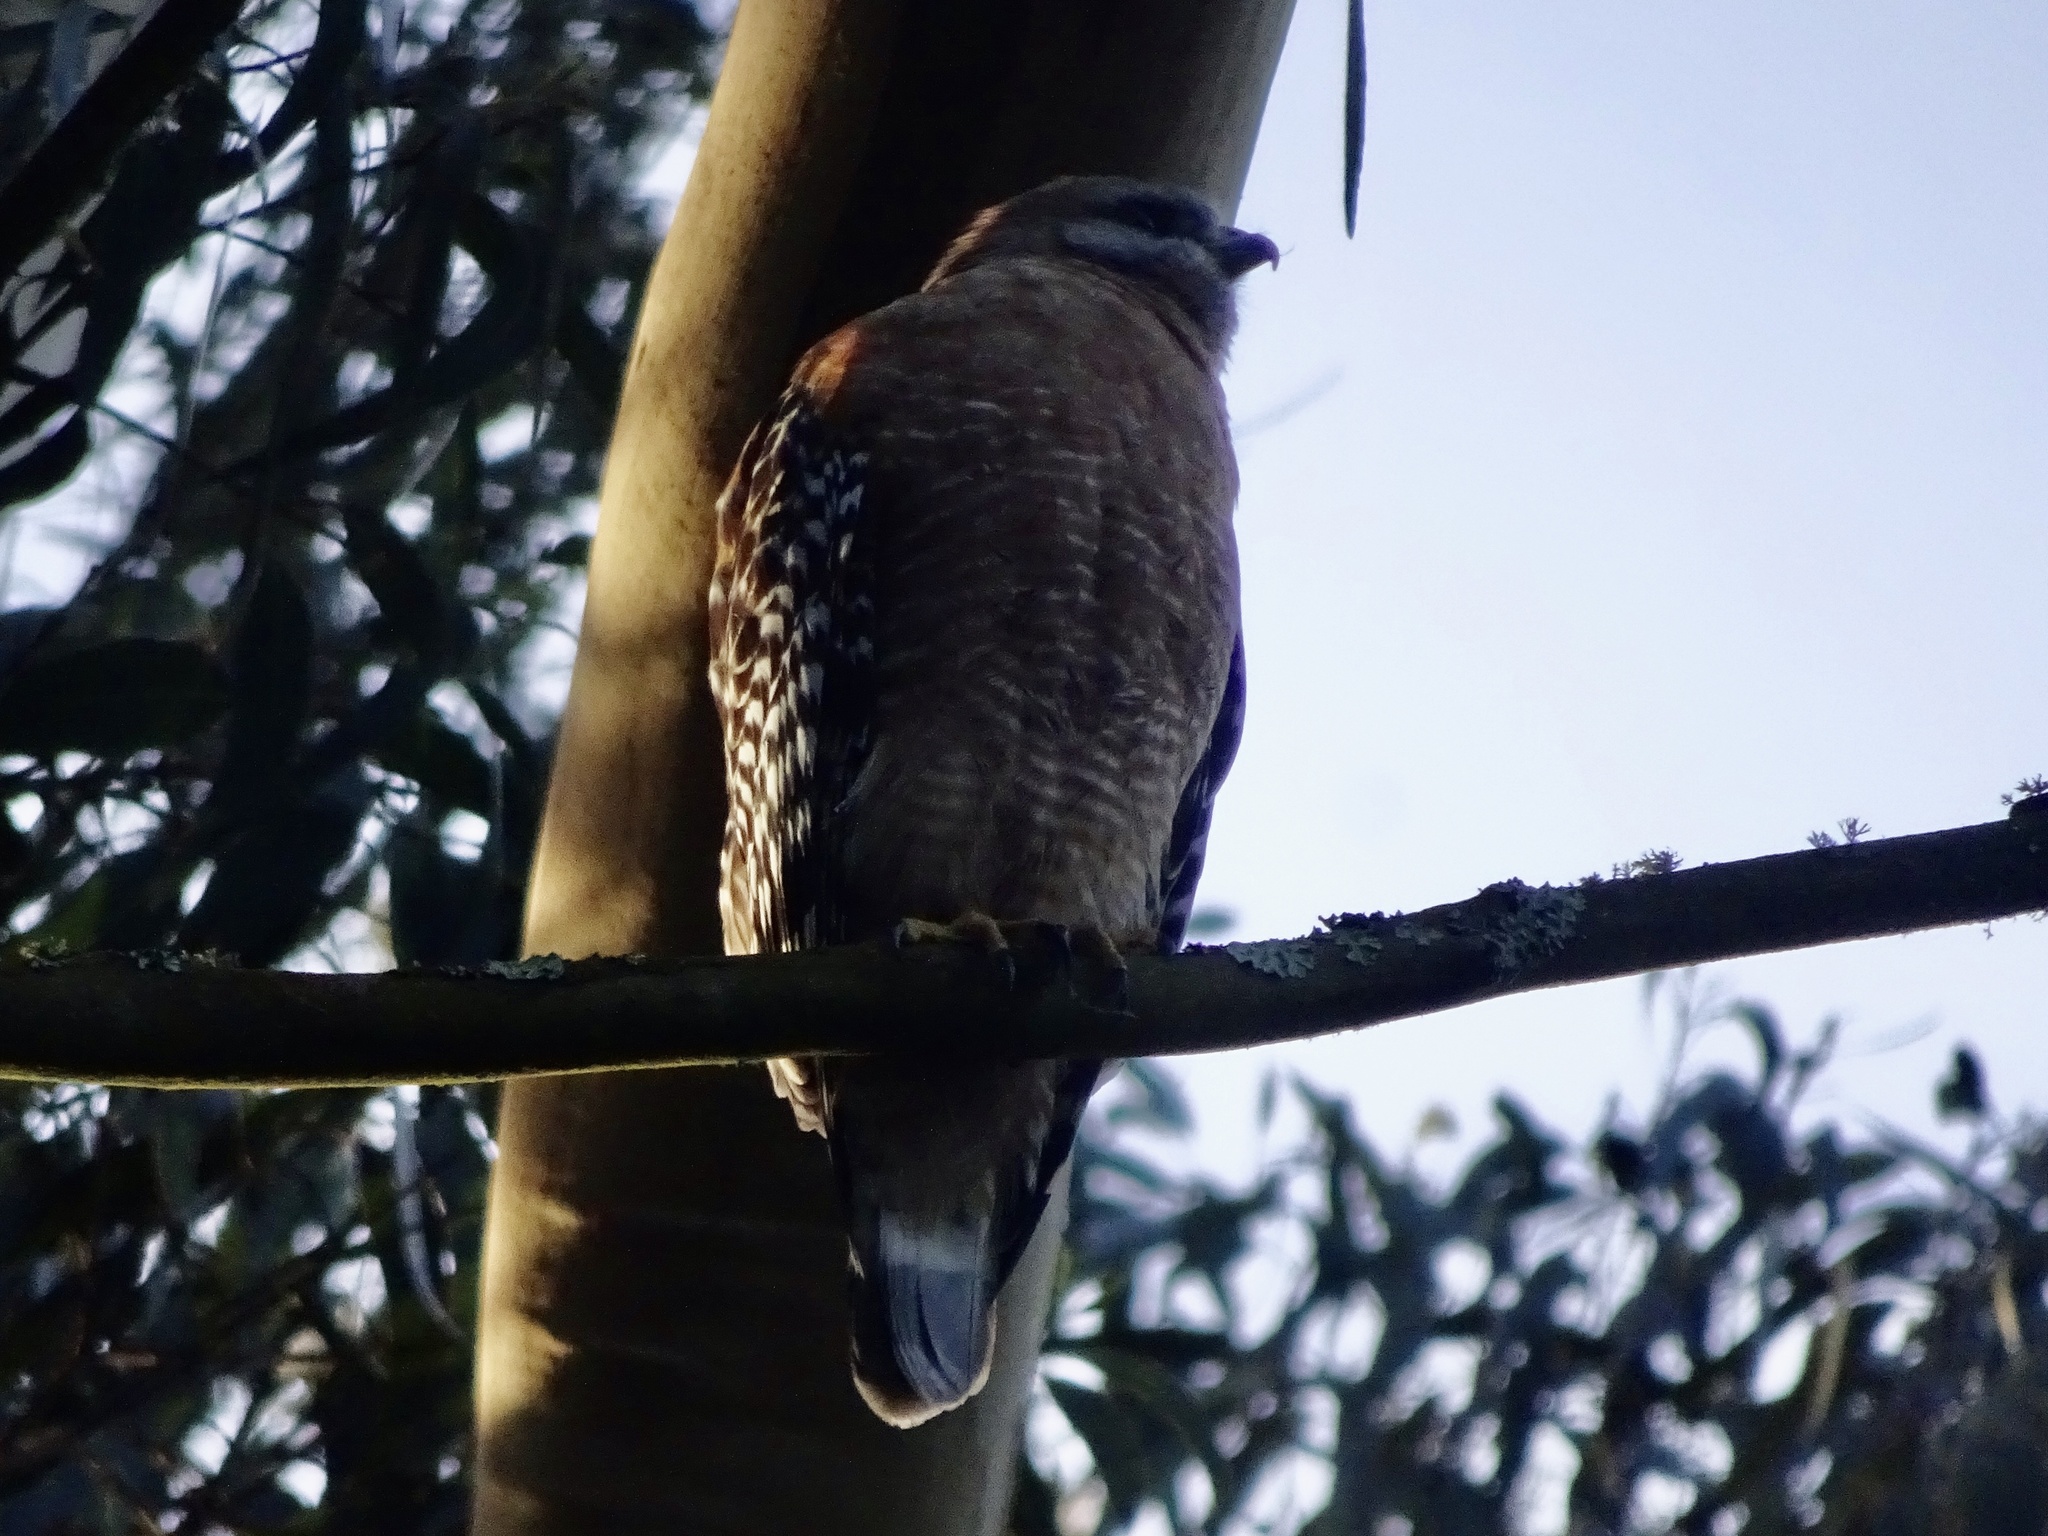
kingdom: Animalia
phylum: Chordata
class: Aves
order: Accipitriformes
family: Accipitridae
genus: Buteo
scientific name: Buteo lineatus
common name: Red-shouldered hawk
